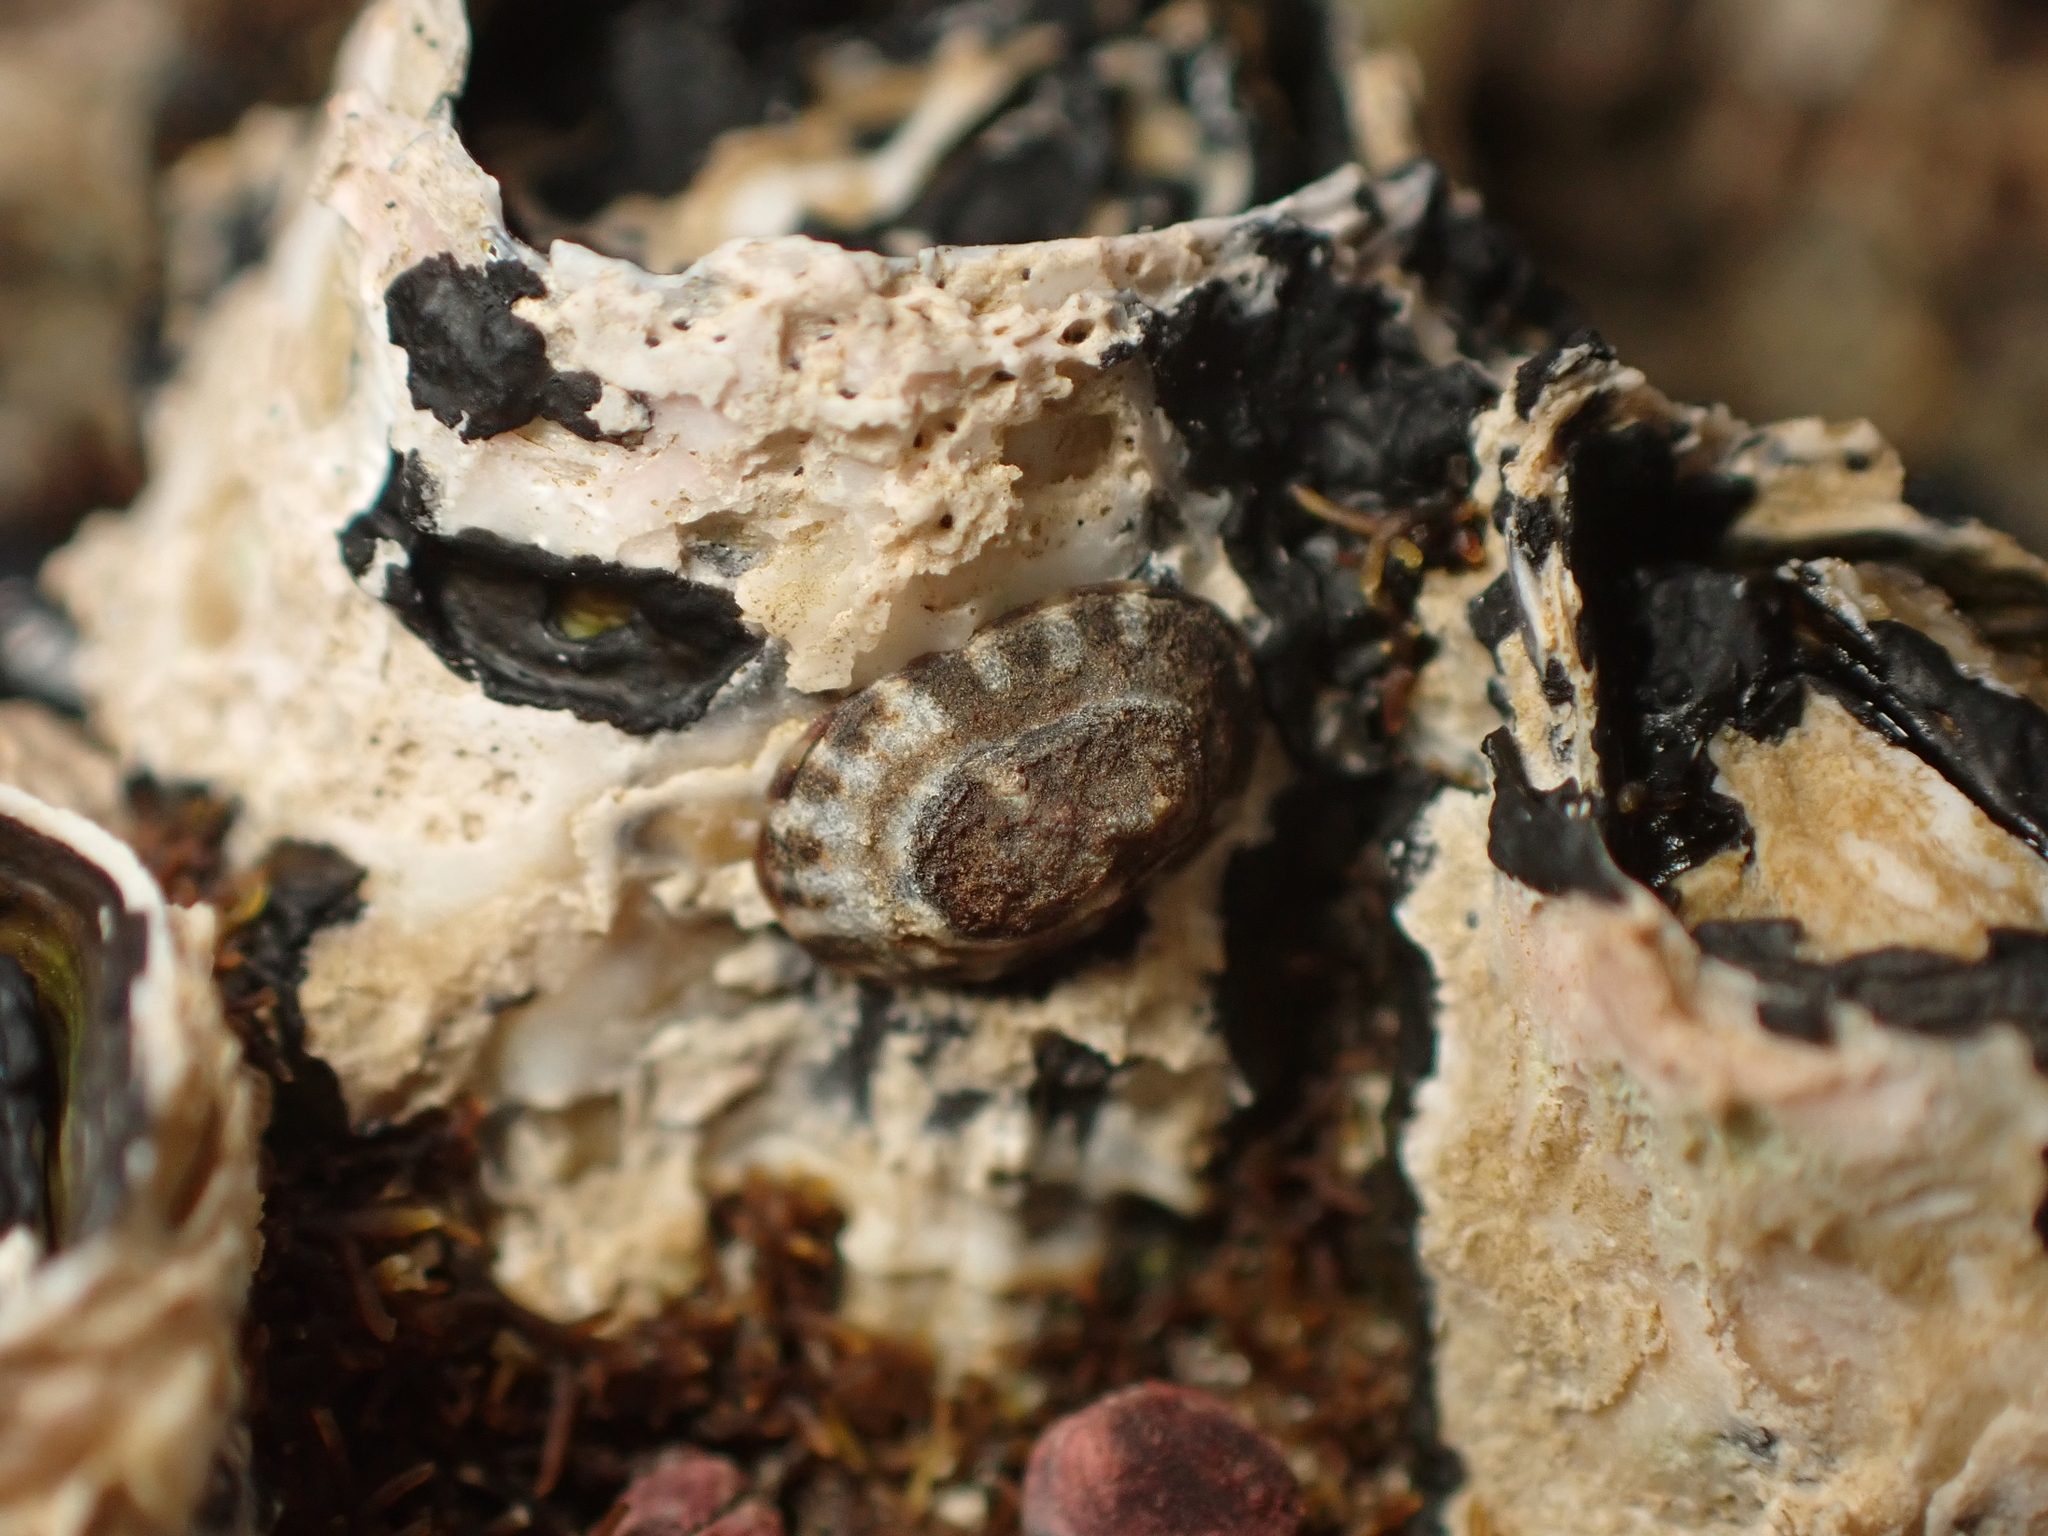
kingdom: Animalia
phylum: Mollusca
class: Gastropoda
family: Lottiidae
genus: Notoacmea
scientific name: Notoacmea parviconoidea
